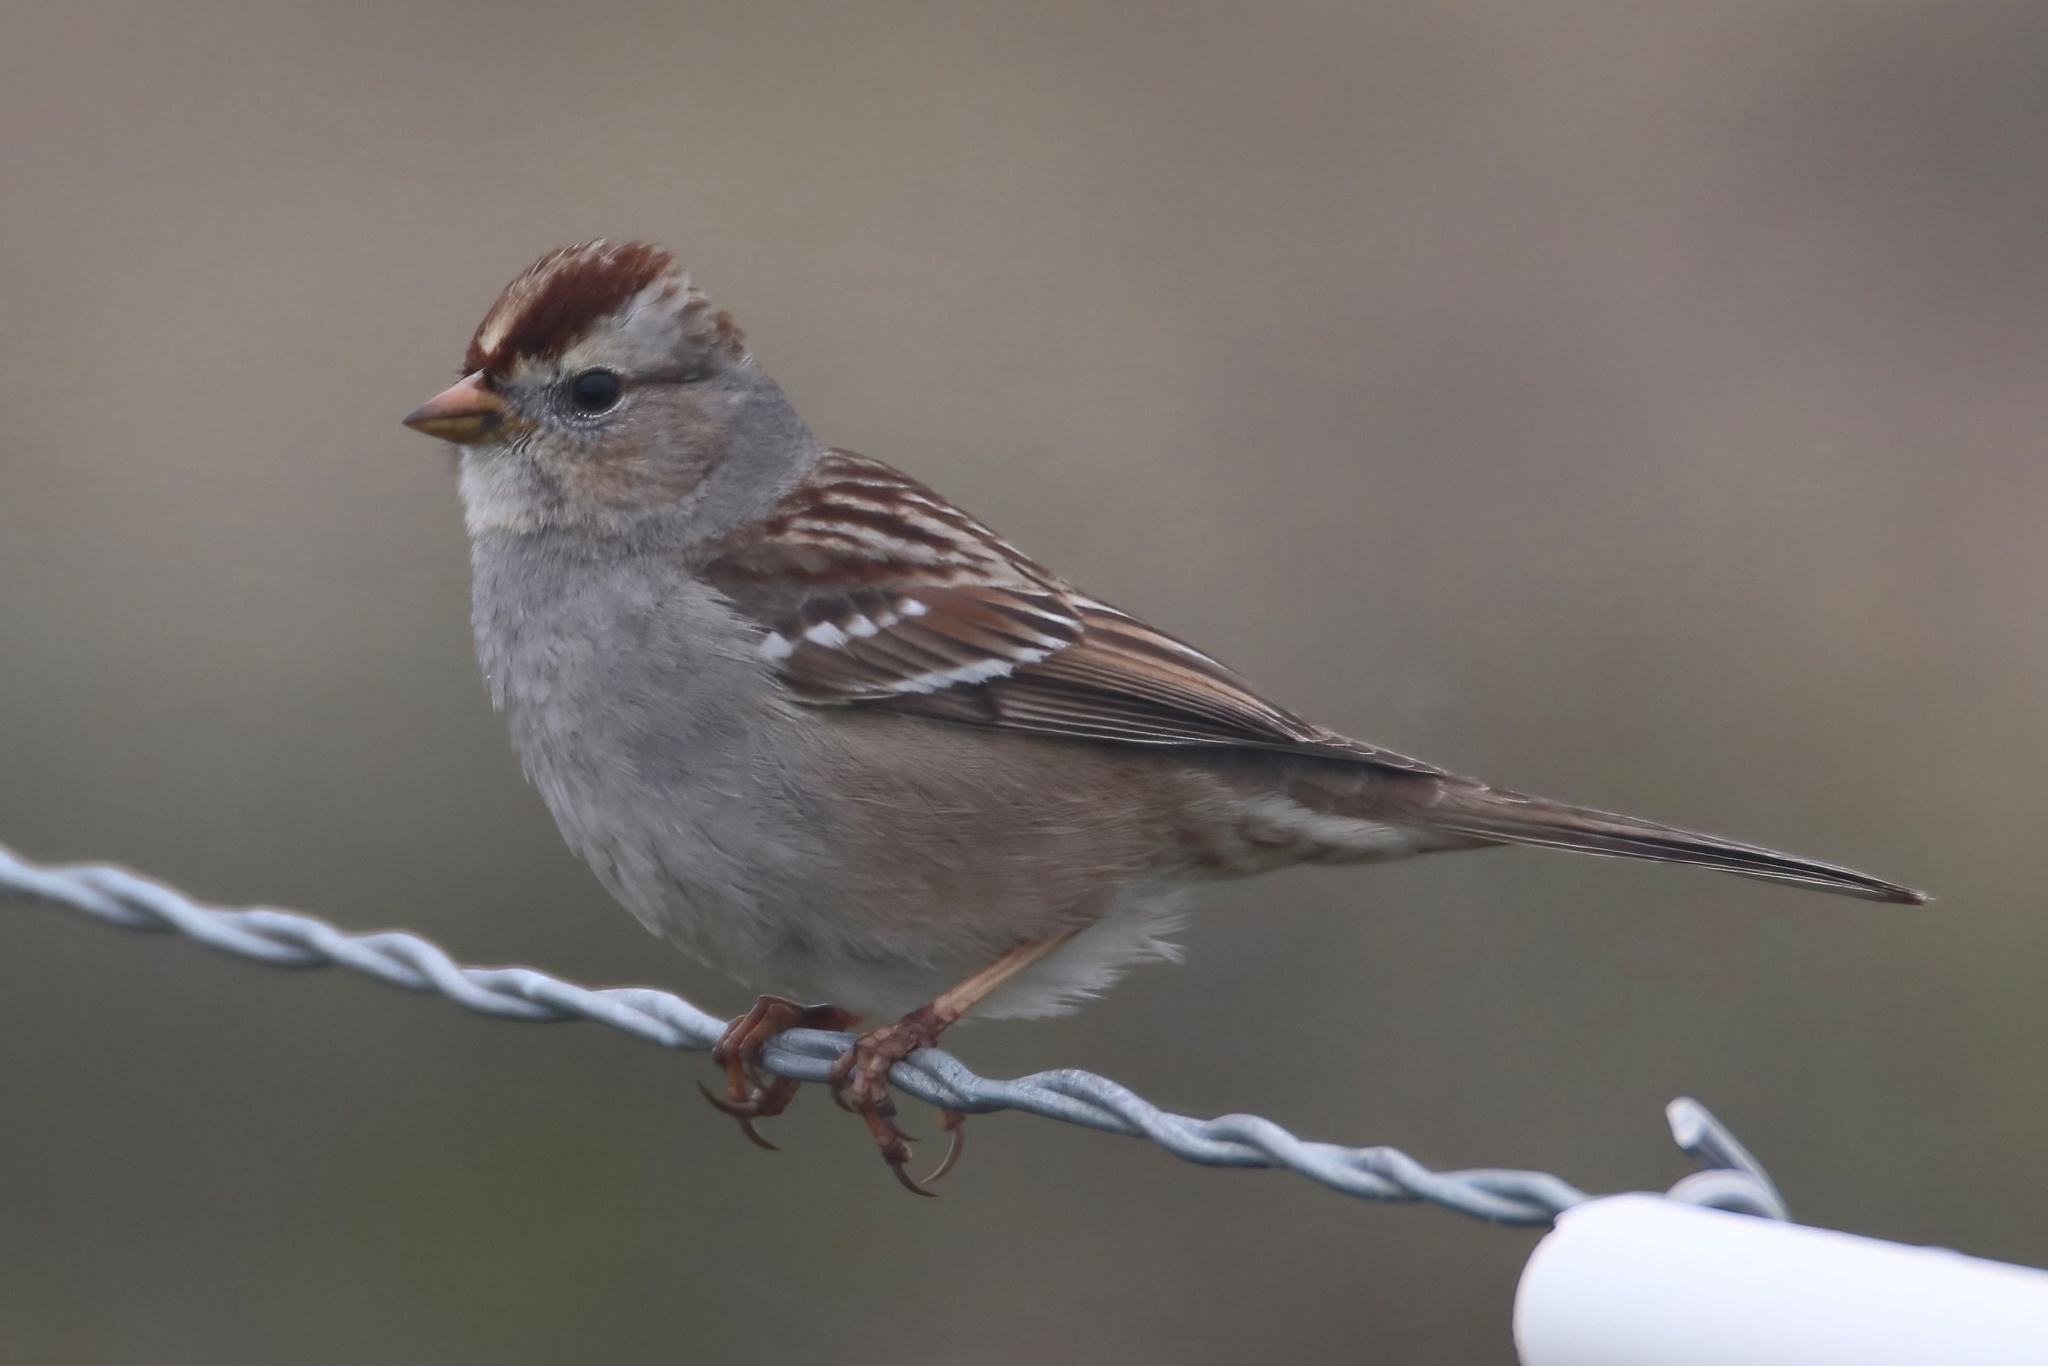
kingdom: Animalia
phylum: Chordata
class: Aves
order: Passeriformes
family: Passerellidae
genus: Zonotrichia
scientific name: Zonotrichia leucophrys
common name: White-crowned sparrow
